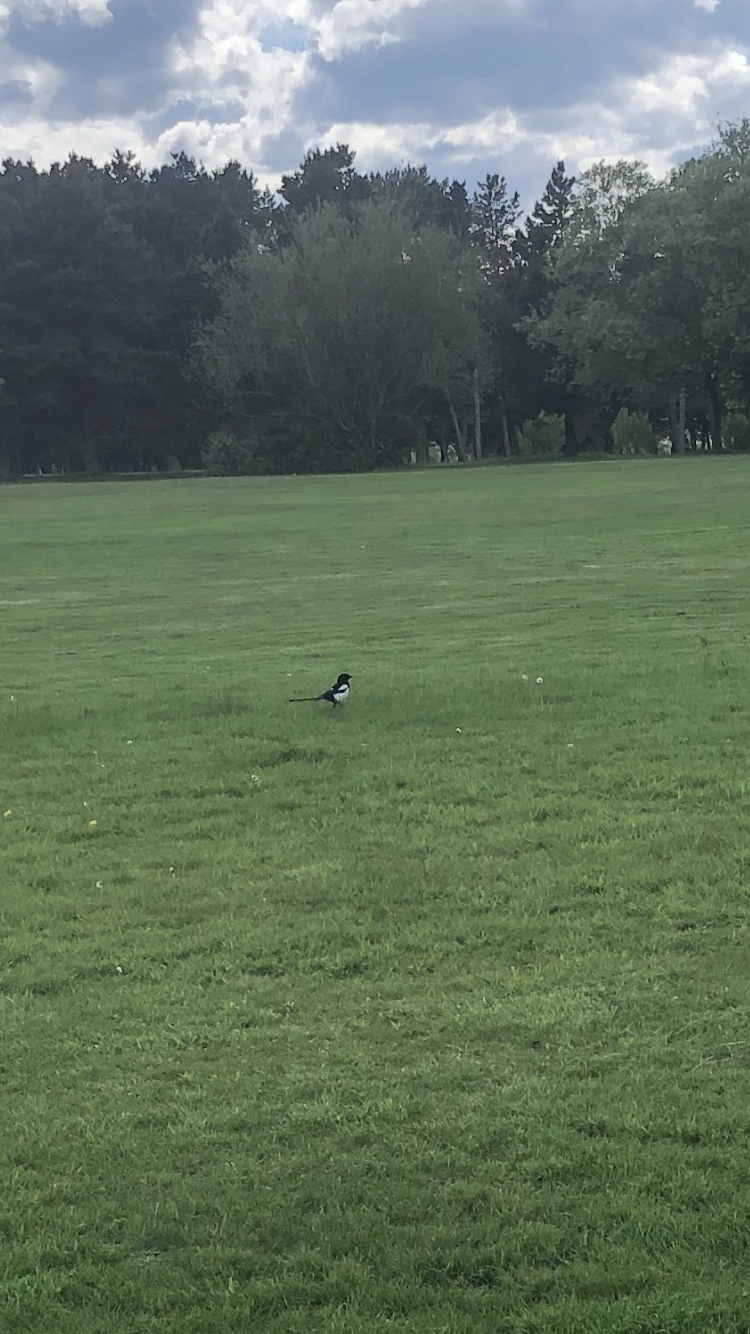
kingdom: Animalia
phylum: Chordata
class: Aves
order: Passeriformes
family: Corvidae
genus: Pica
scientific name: Pica pica
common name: Eurasian magpie
